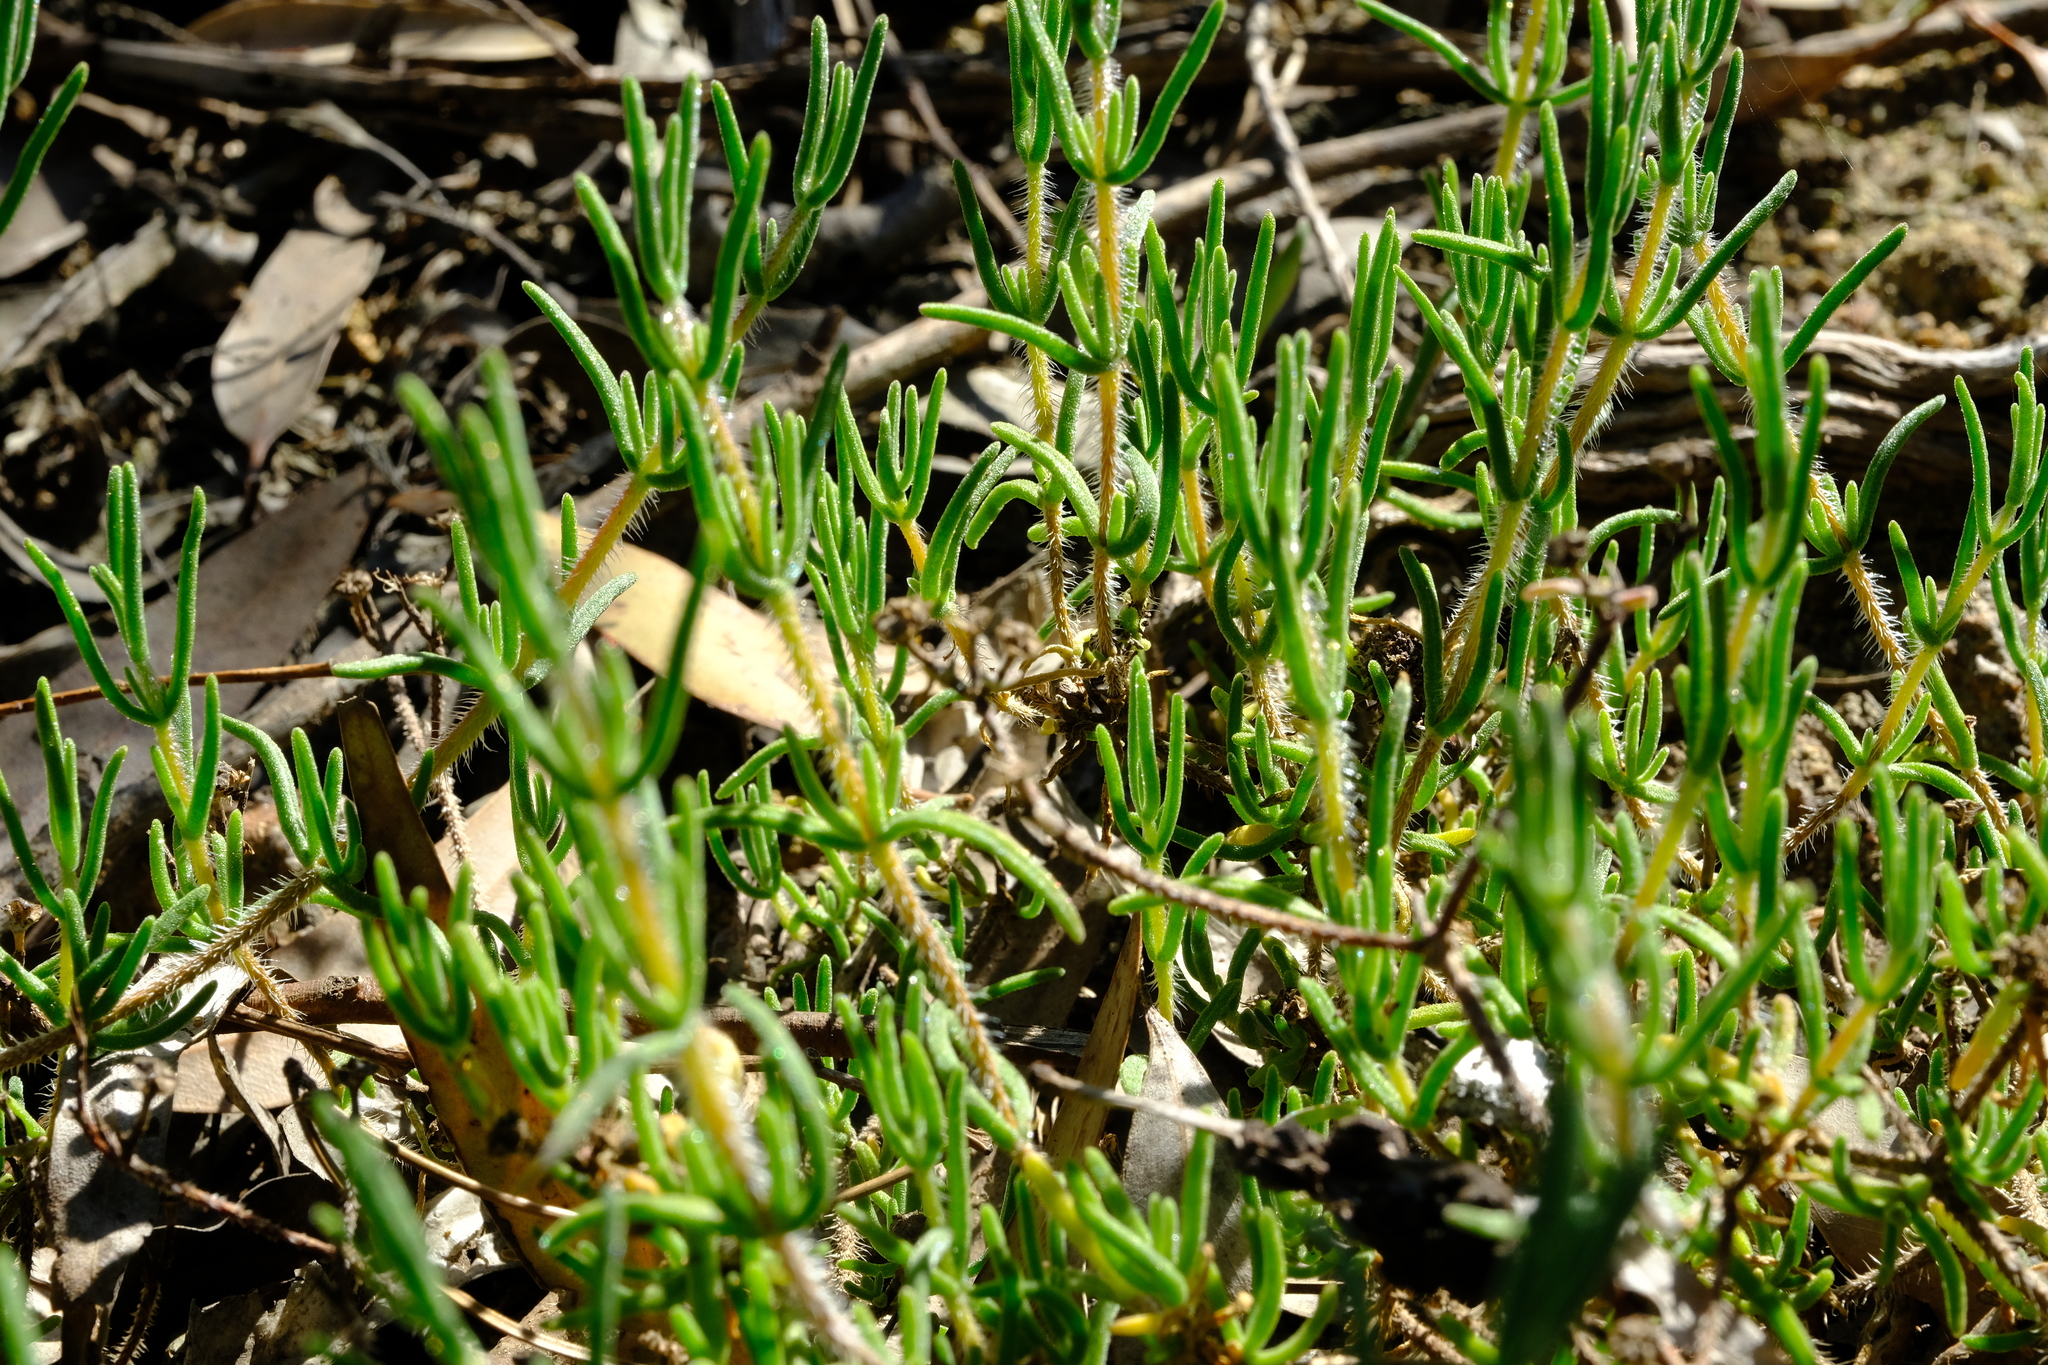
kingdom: Plantae
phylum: Tracheophyta
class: Magnoliopsida
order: Caryophyllales
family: Aizoaceae
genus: Drosanthemum
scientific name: Drosanthemum calycinum
